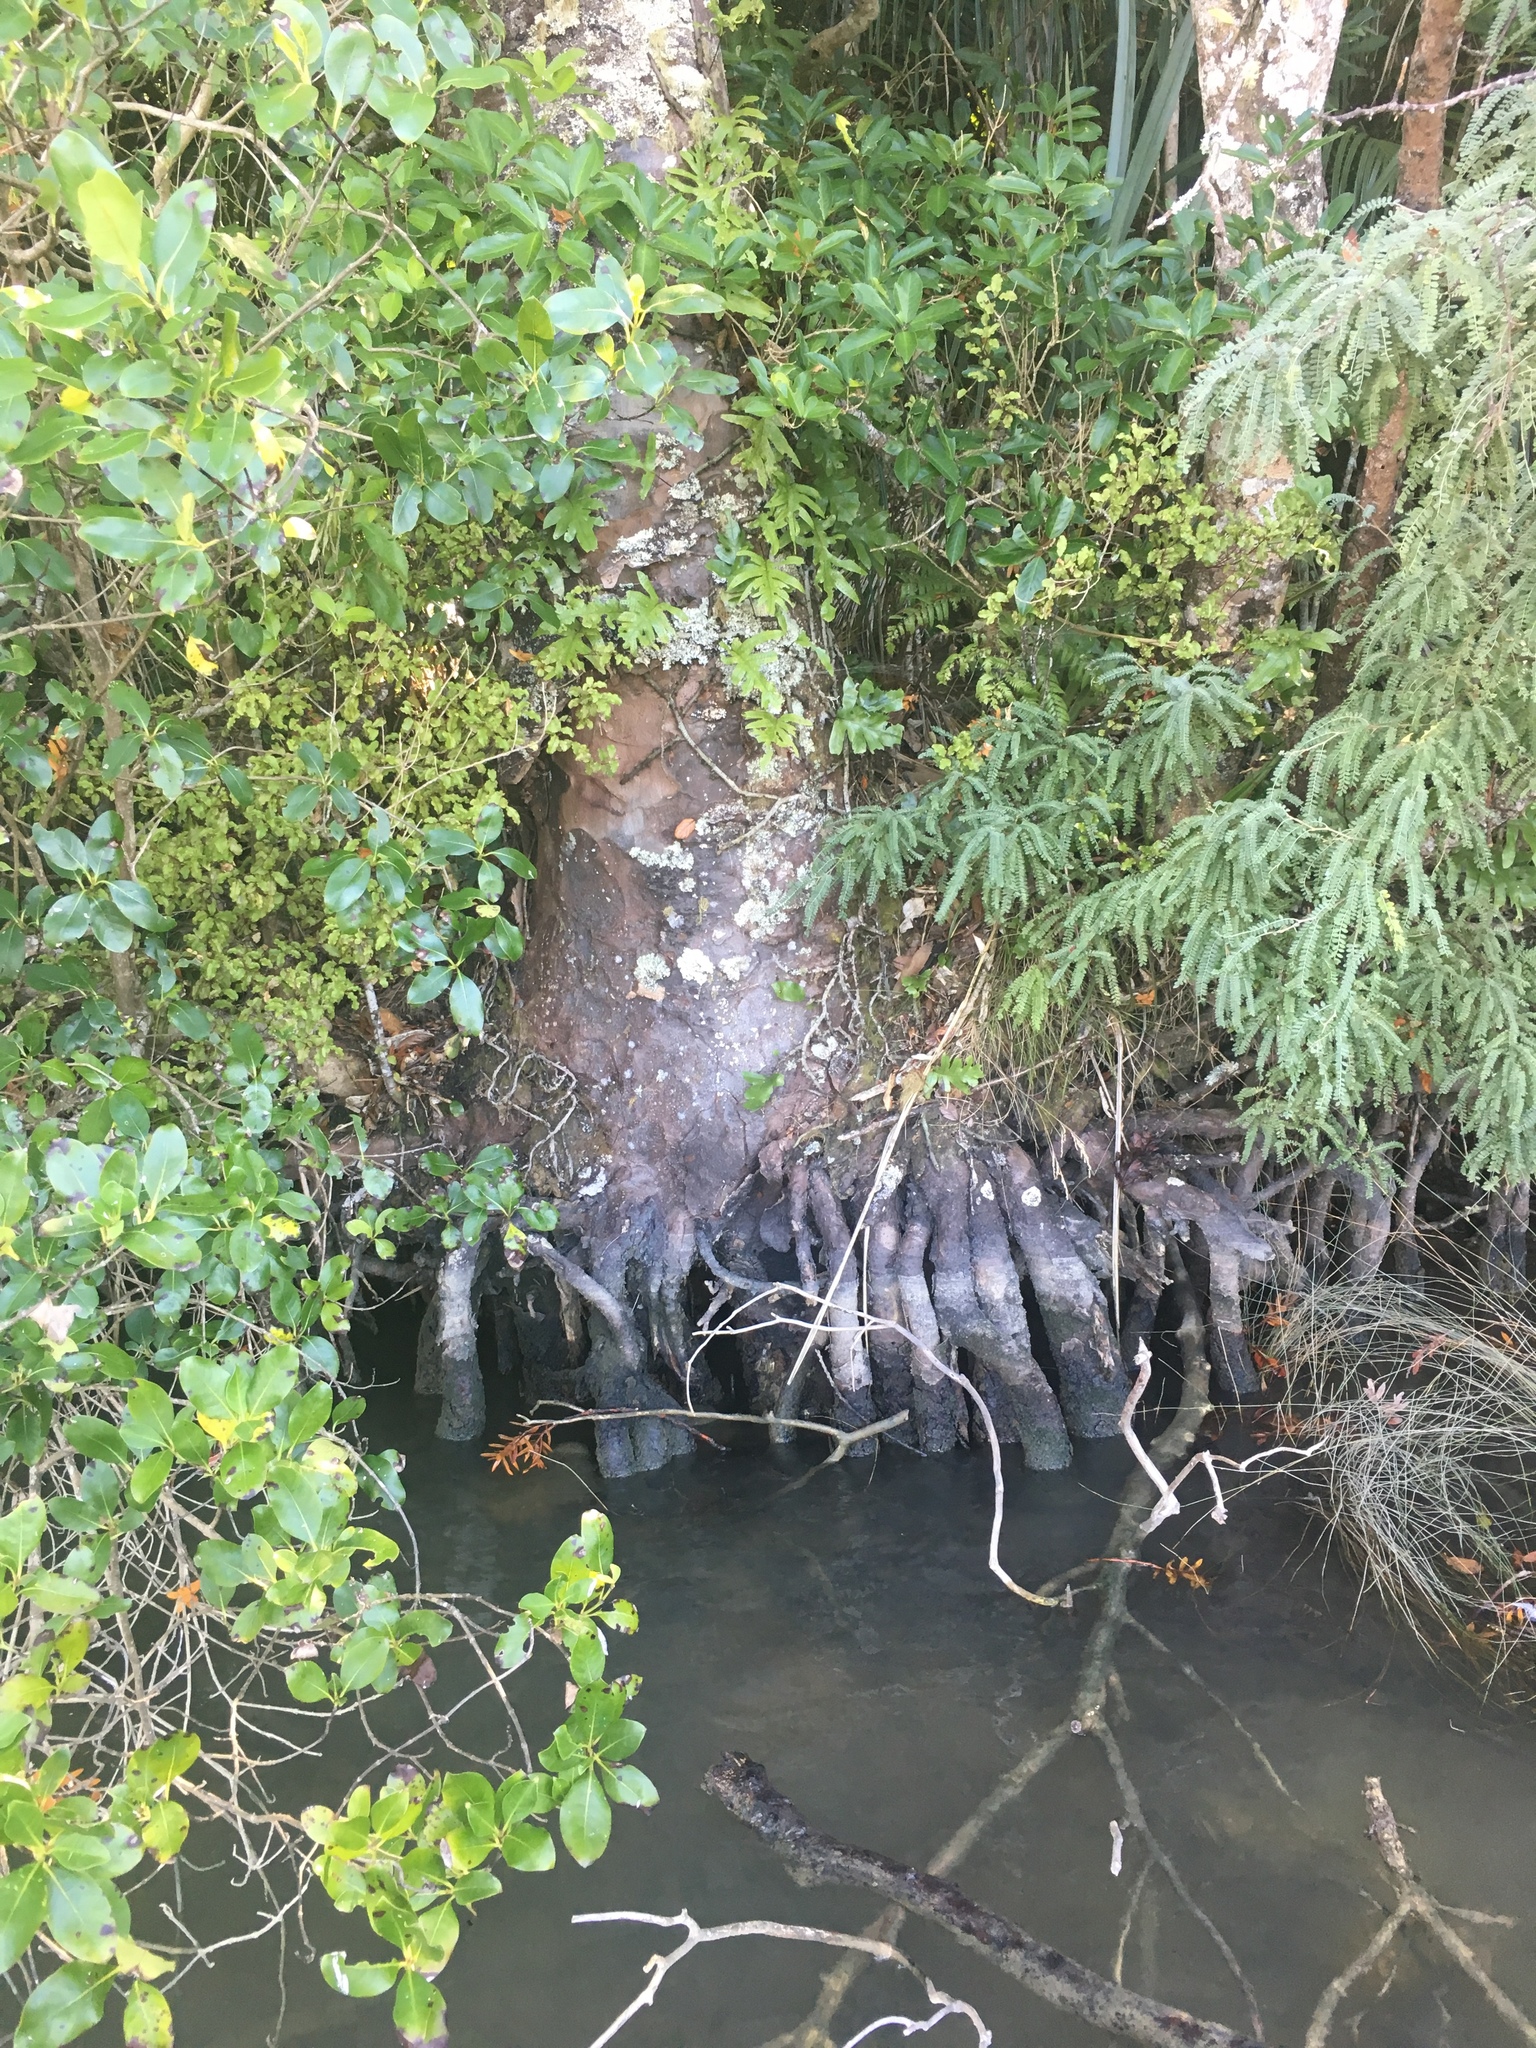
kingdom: Plantae
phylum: Tracheophyta
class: Pinopsida
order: Pinales
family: Araucariaceae
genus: Agathis
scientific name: Agathis australis
